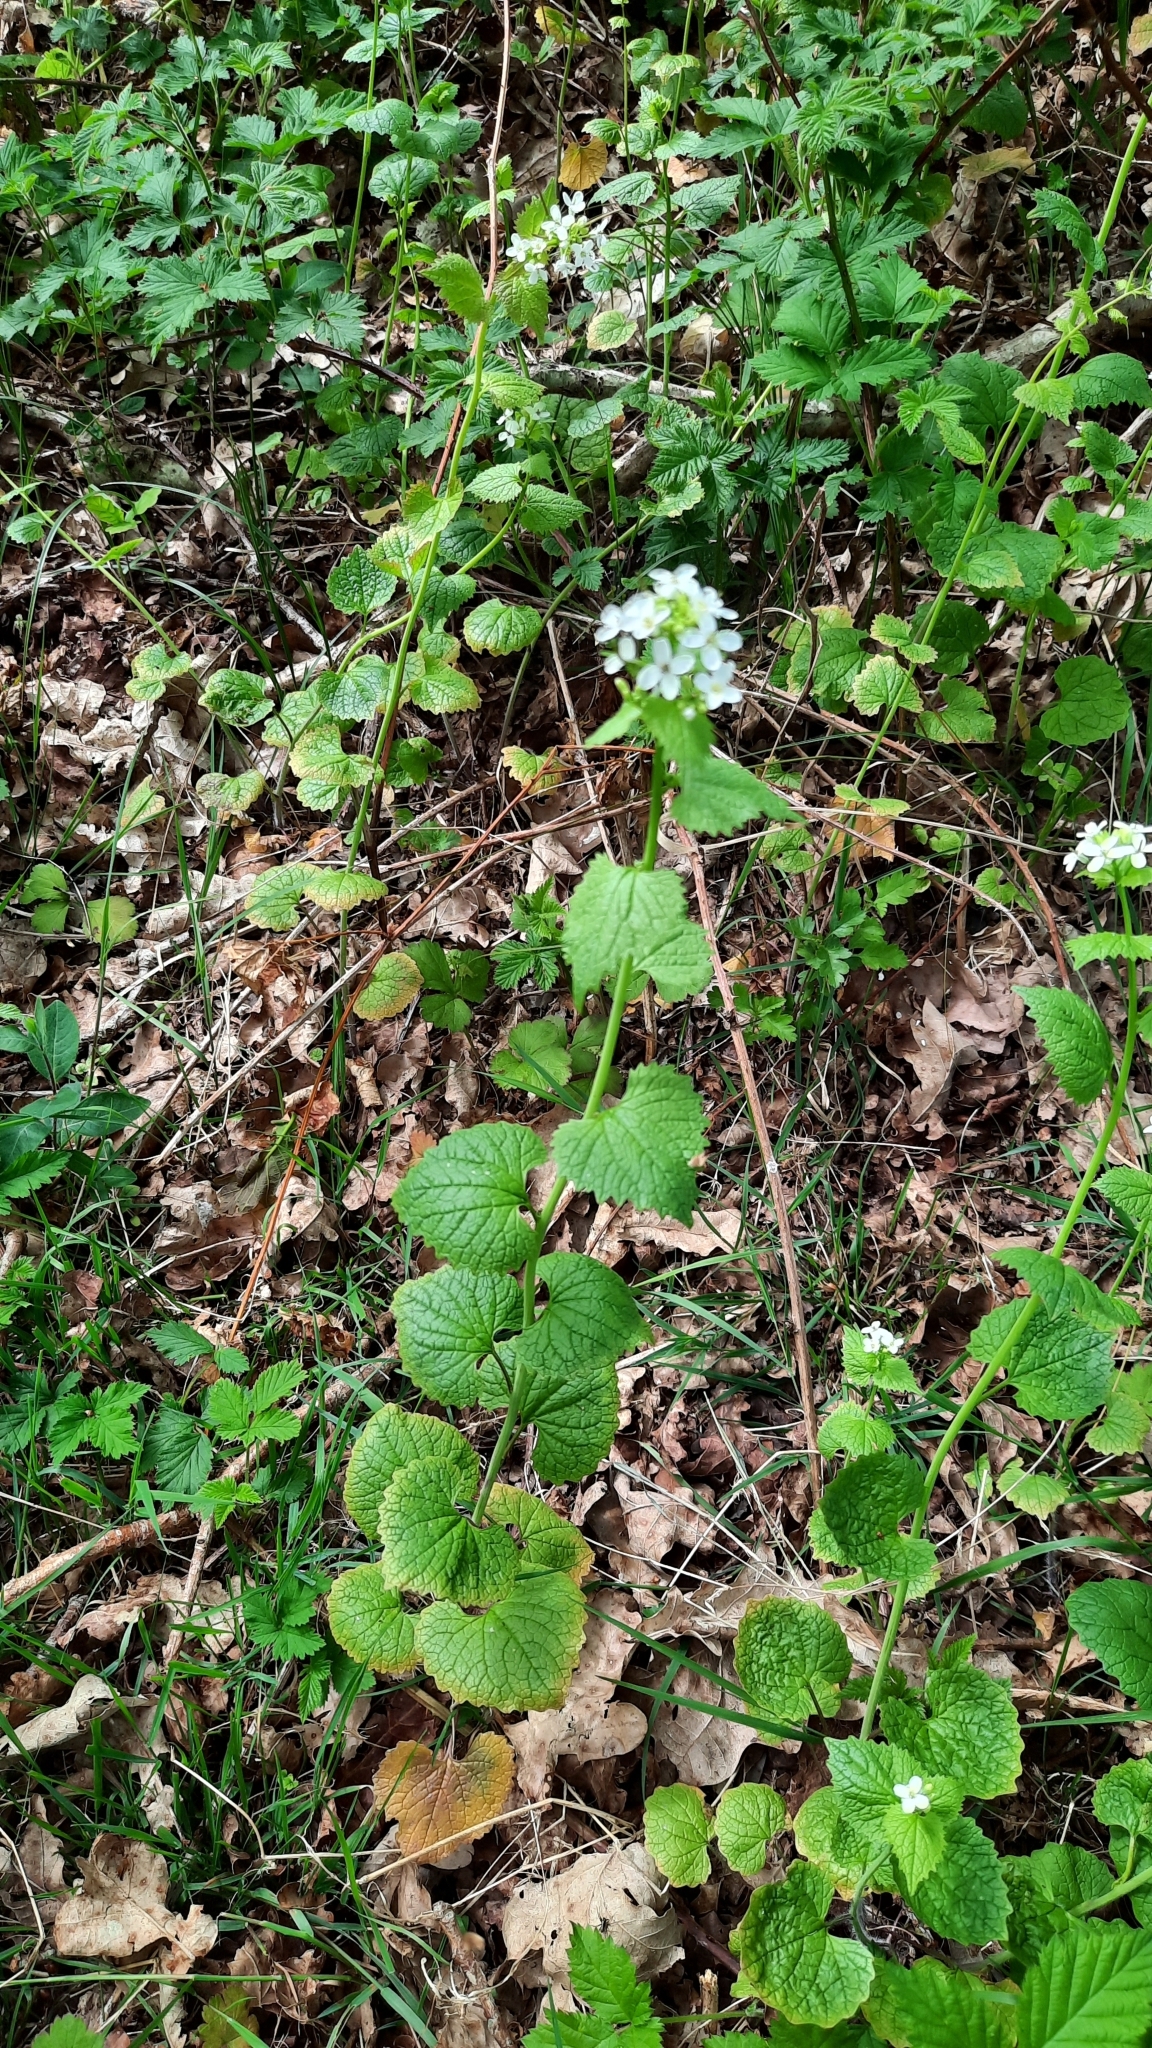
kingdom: Plantae
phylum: Tracheophyta
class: Magnoliopsida
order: Brassicales
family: Brassicaceae
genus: Alliaria
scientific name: Alliaria petiolata
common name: Garlic mustard
